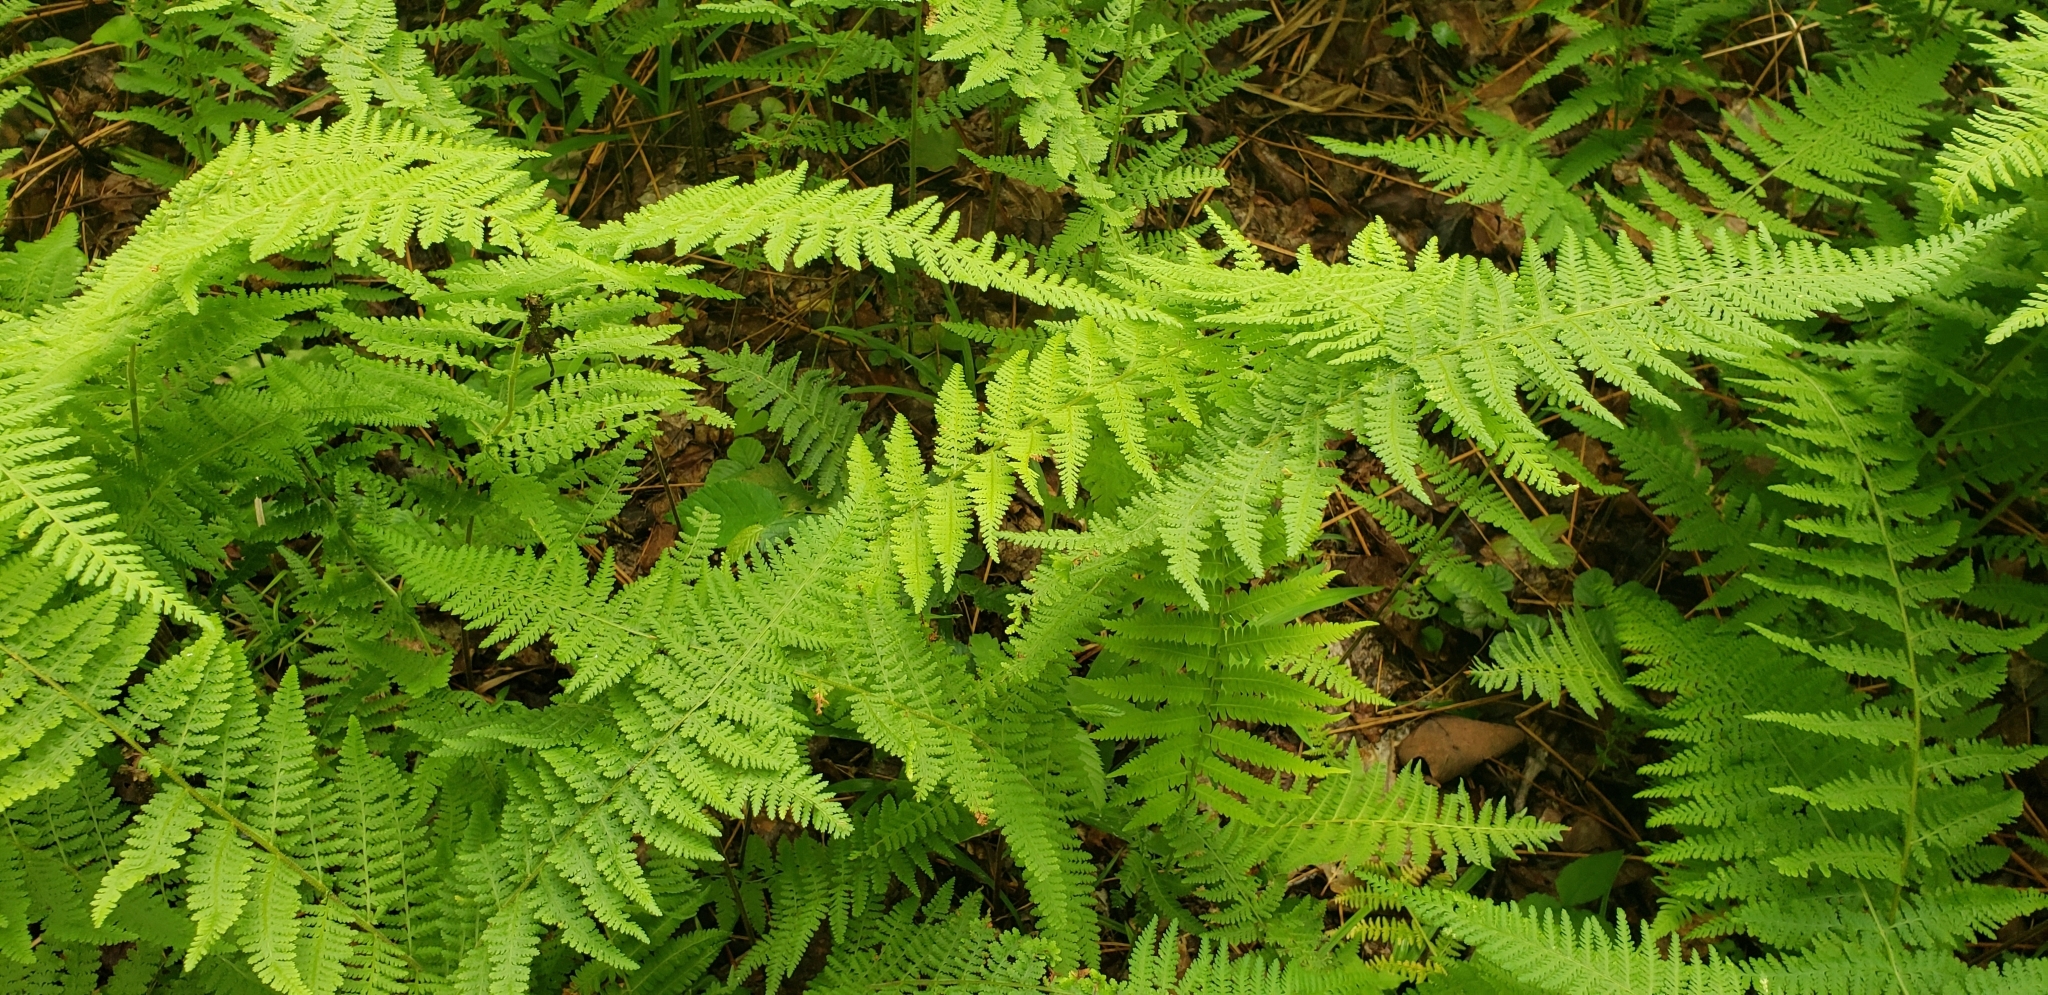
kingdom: Plantae
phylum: Tracheophyta
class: Polypodiopsida
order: Polypodiales
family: Dennstaedtiaceae
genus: Sitobolium
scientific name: Sitobolium punctilobum
